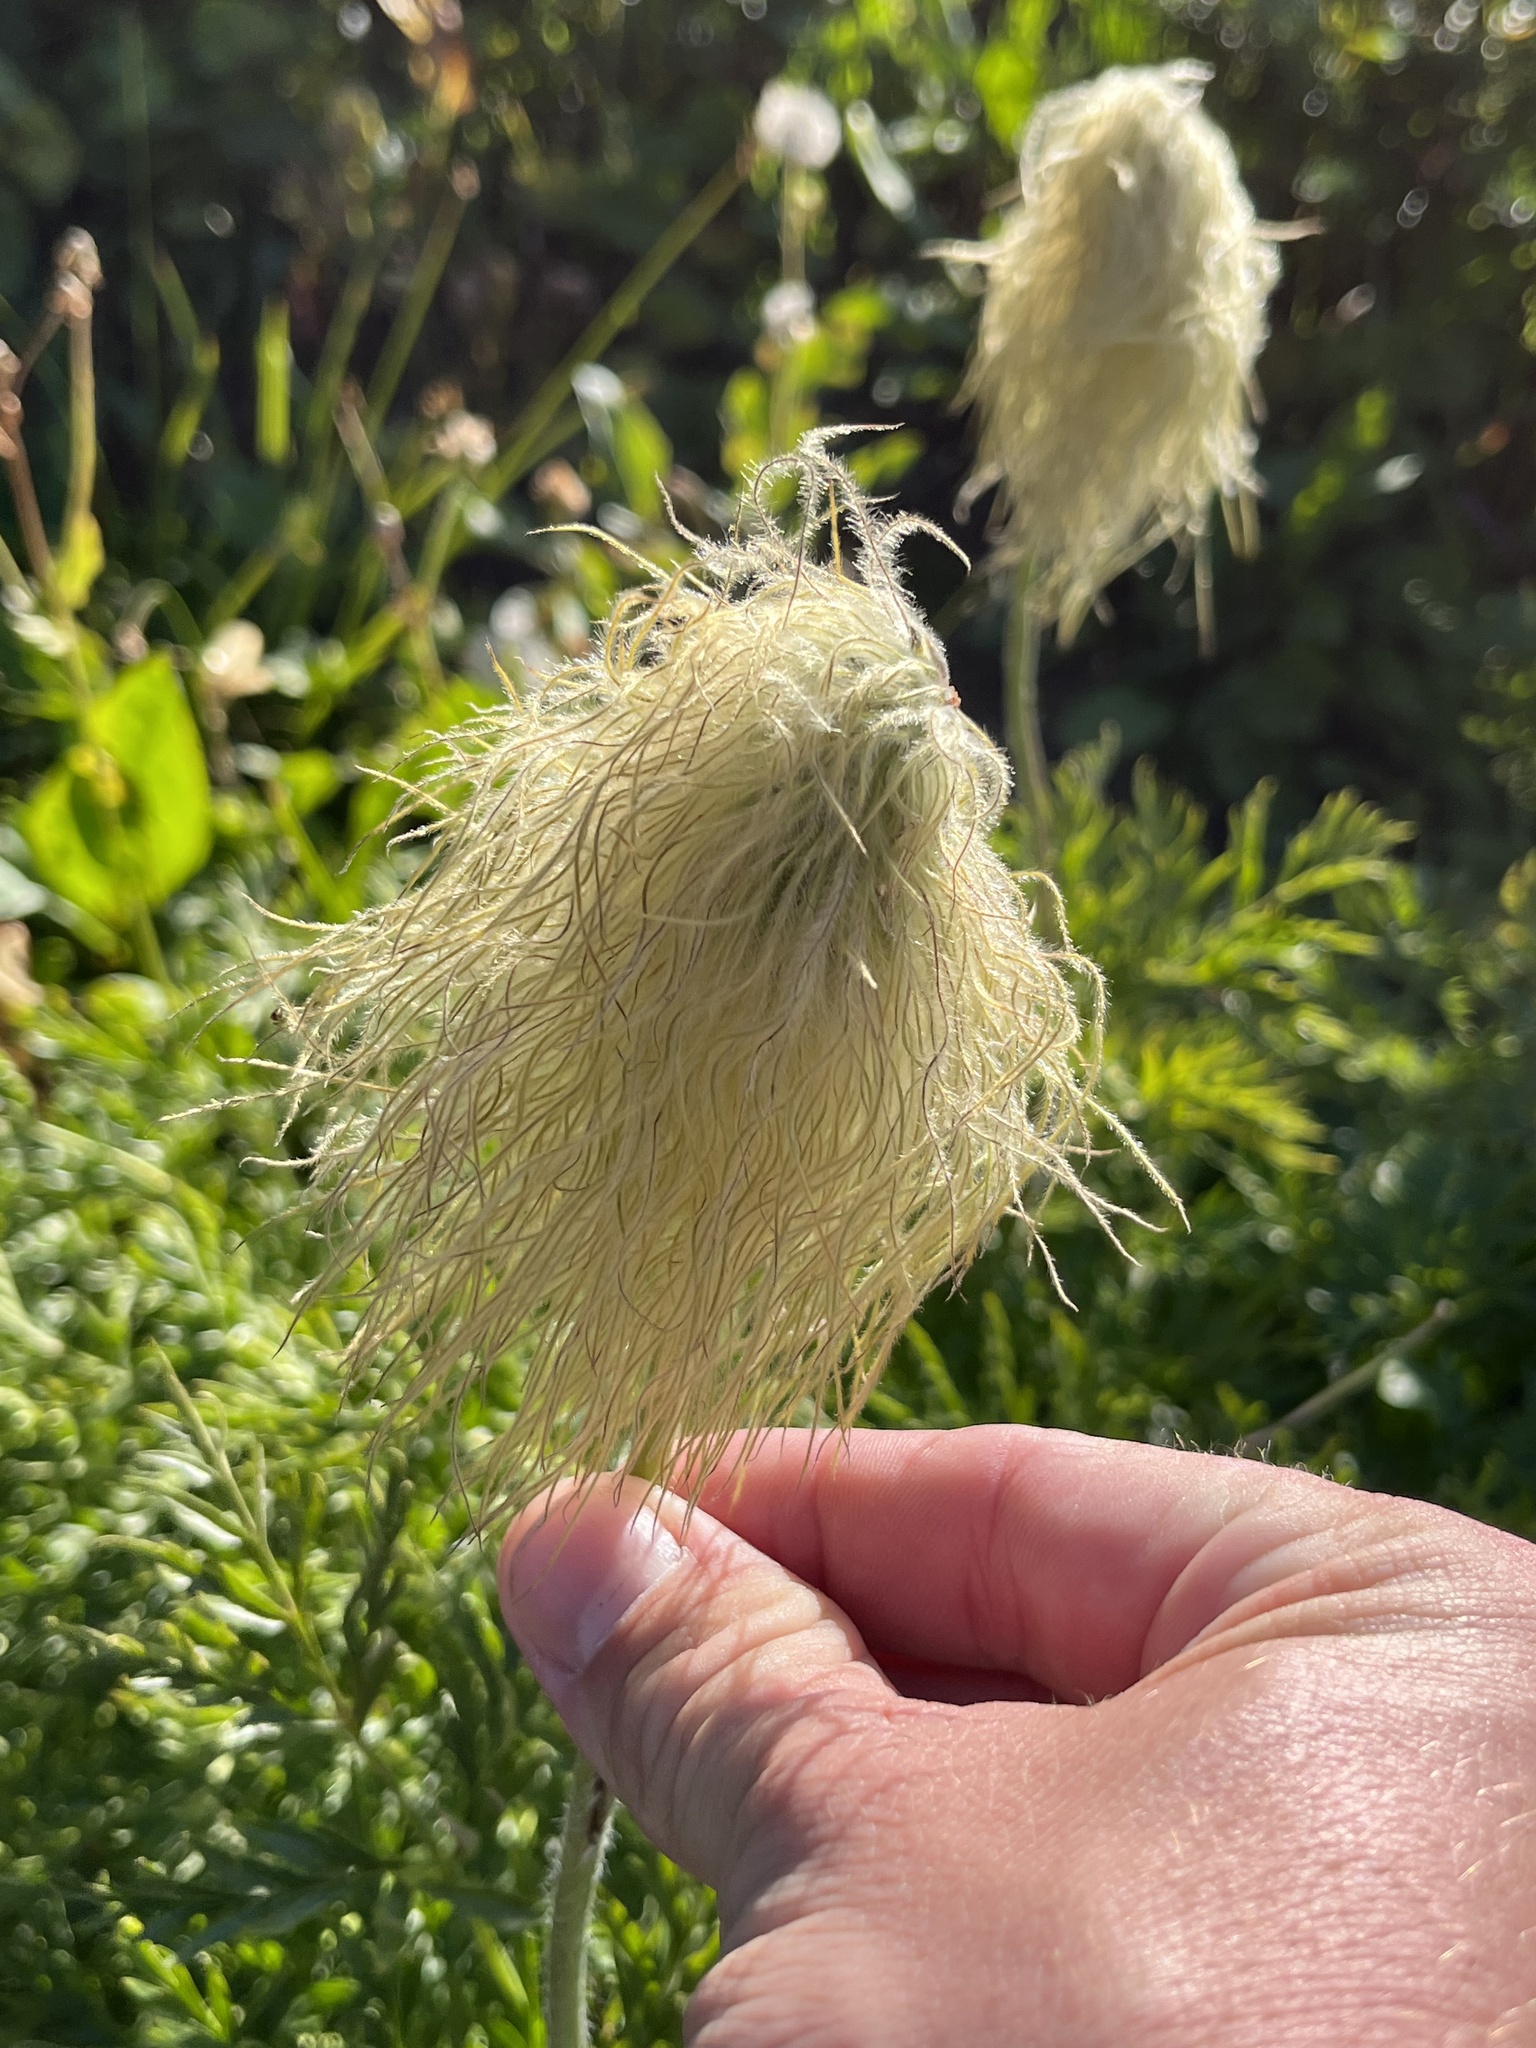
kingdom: Plantae
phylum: Tracheophyta
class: Magnoliopsida
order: Ranunculales
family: Ranunculaceae
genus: Pulsatilla
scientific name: Pulsatilla occidentalis
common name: Mountain pasqueflower
